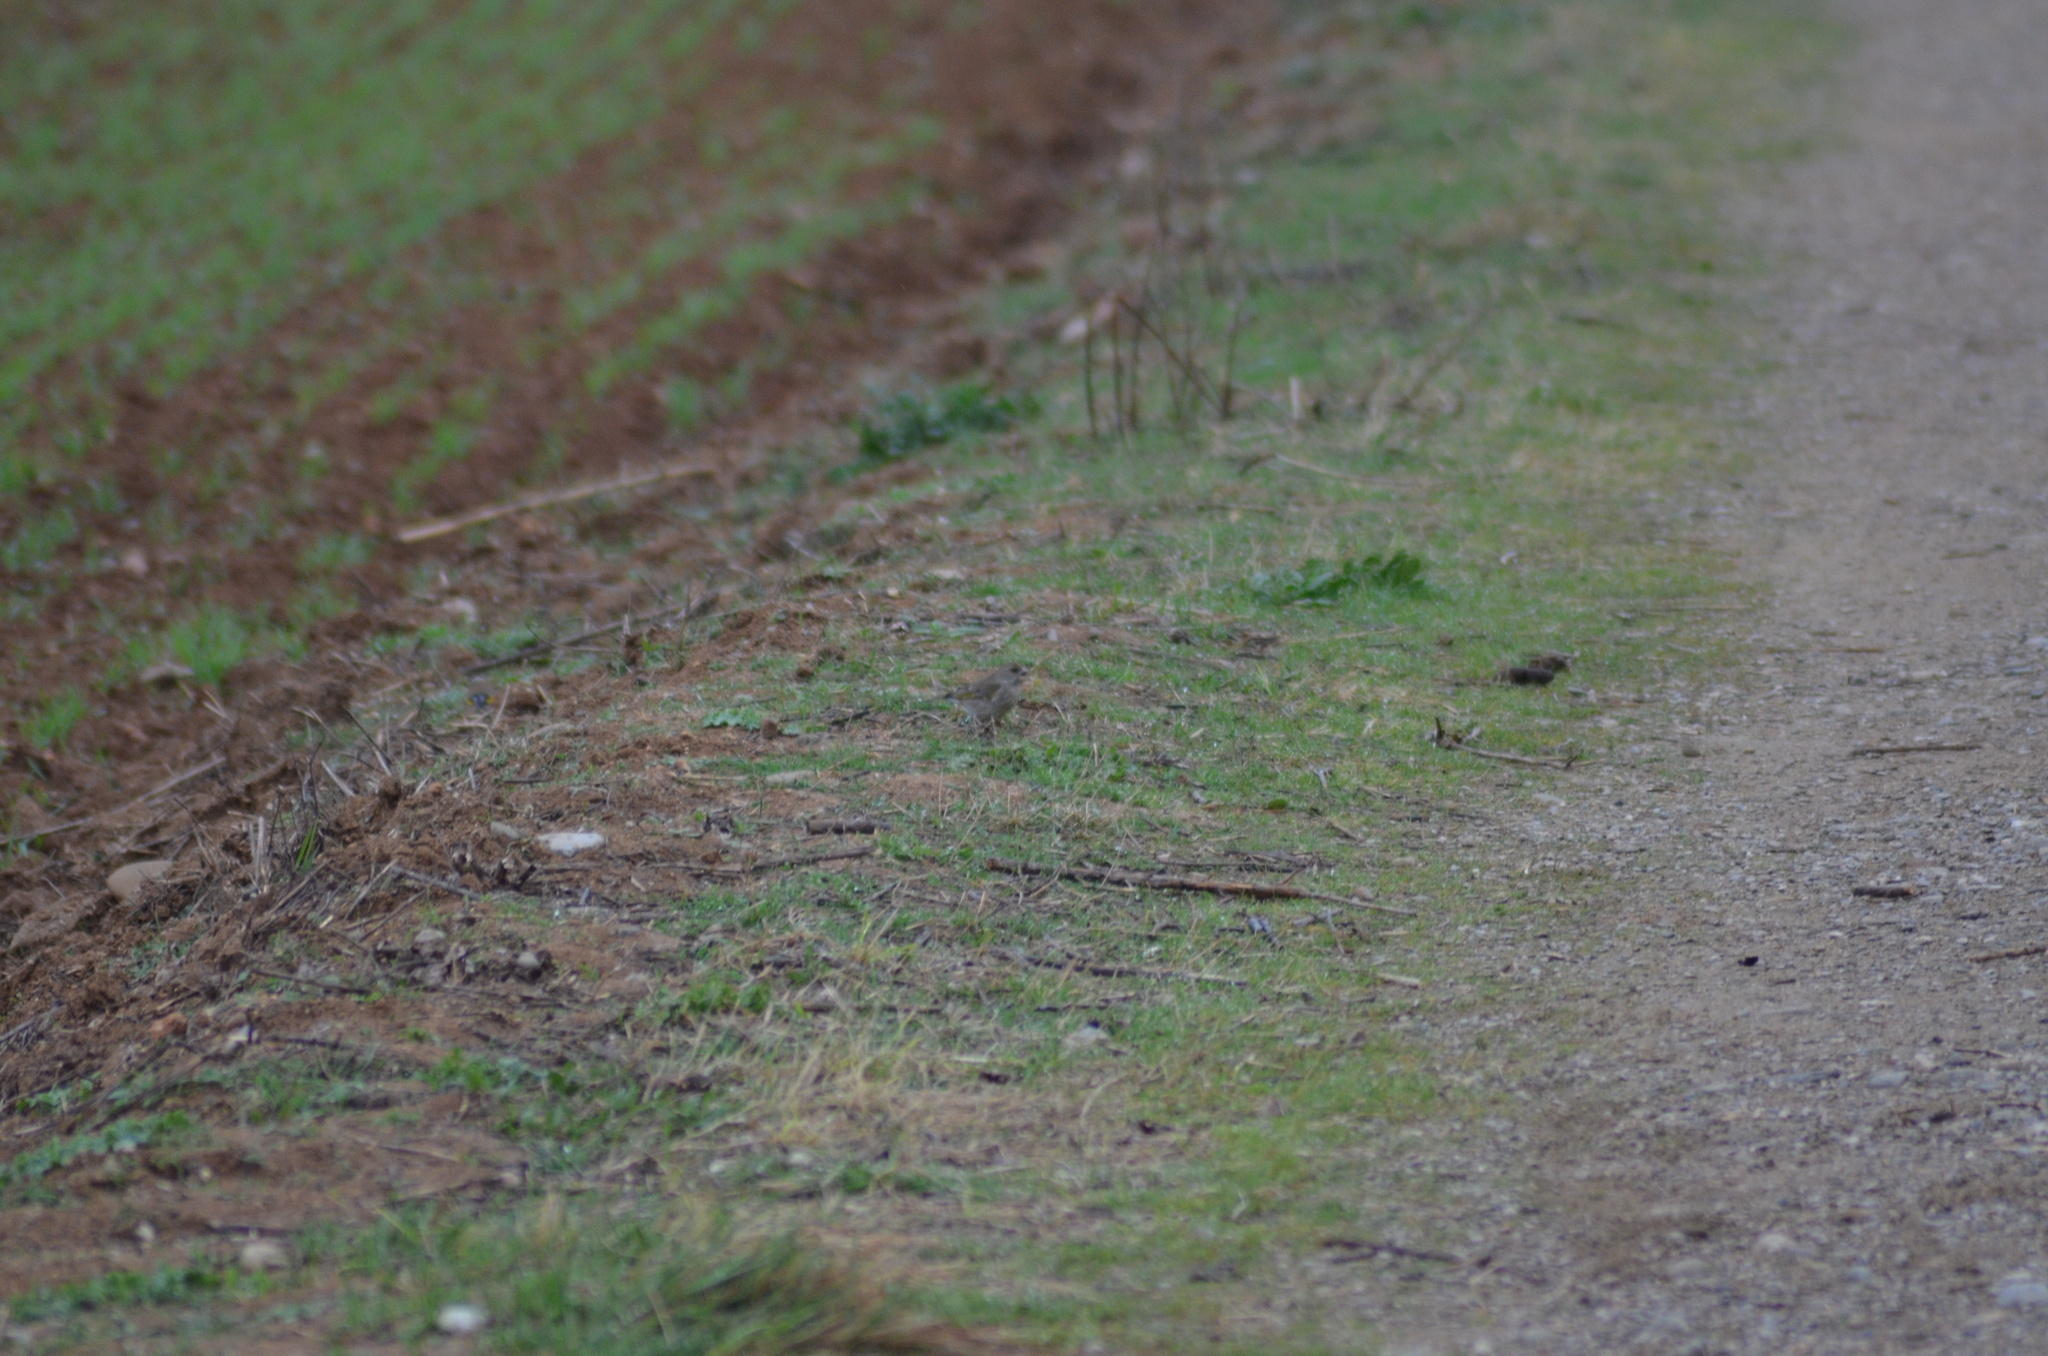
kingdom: Plantae
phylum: Tracheophyta
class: Liliopsida
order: Poales
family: Poaceae
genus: Chloris
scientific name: Chloris chloris
